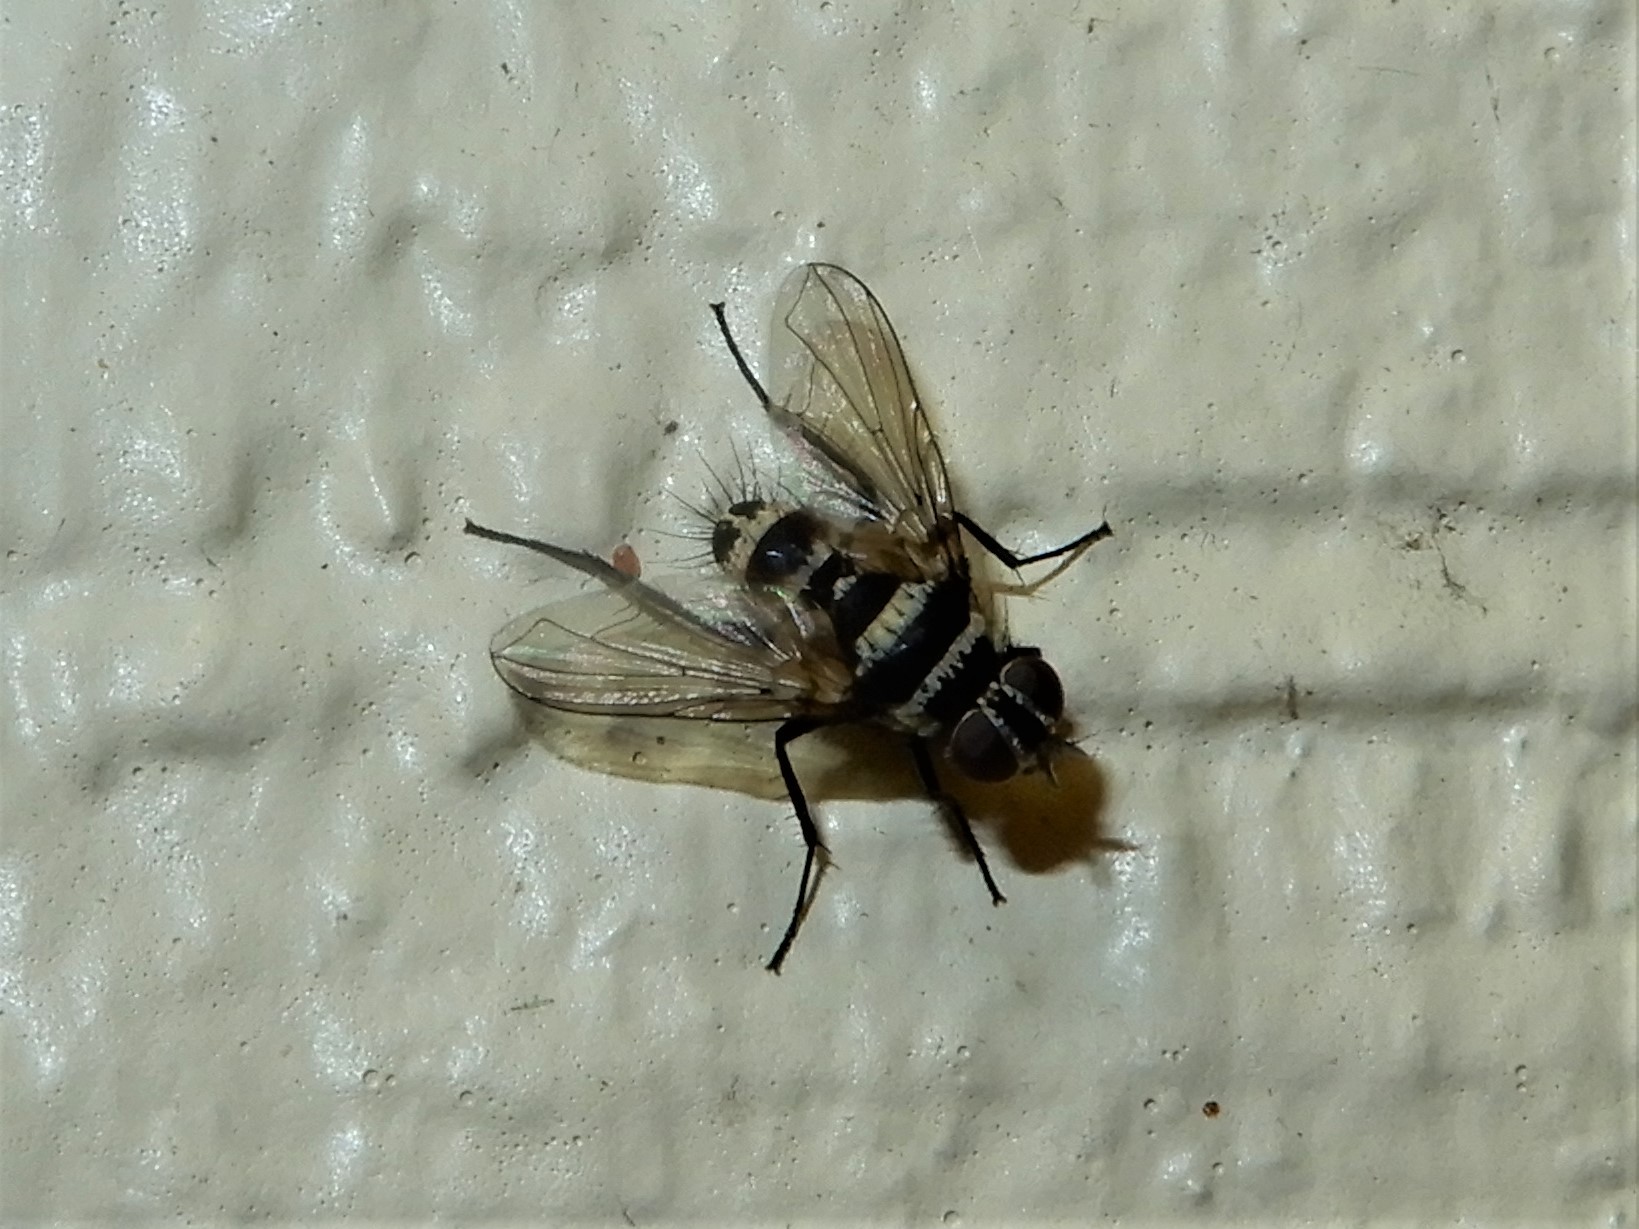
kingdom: Animalia
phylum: Arthropoda
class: Insecta
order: Diptera
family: Tachinidae
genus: Trigonospila
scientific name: Trigonospila brevifacies
